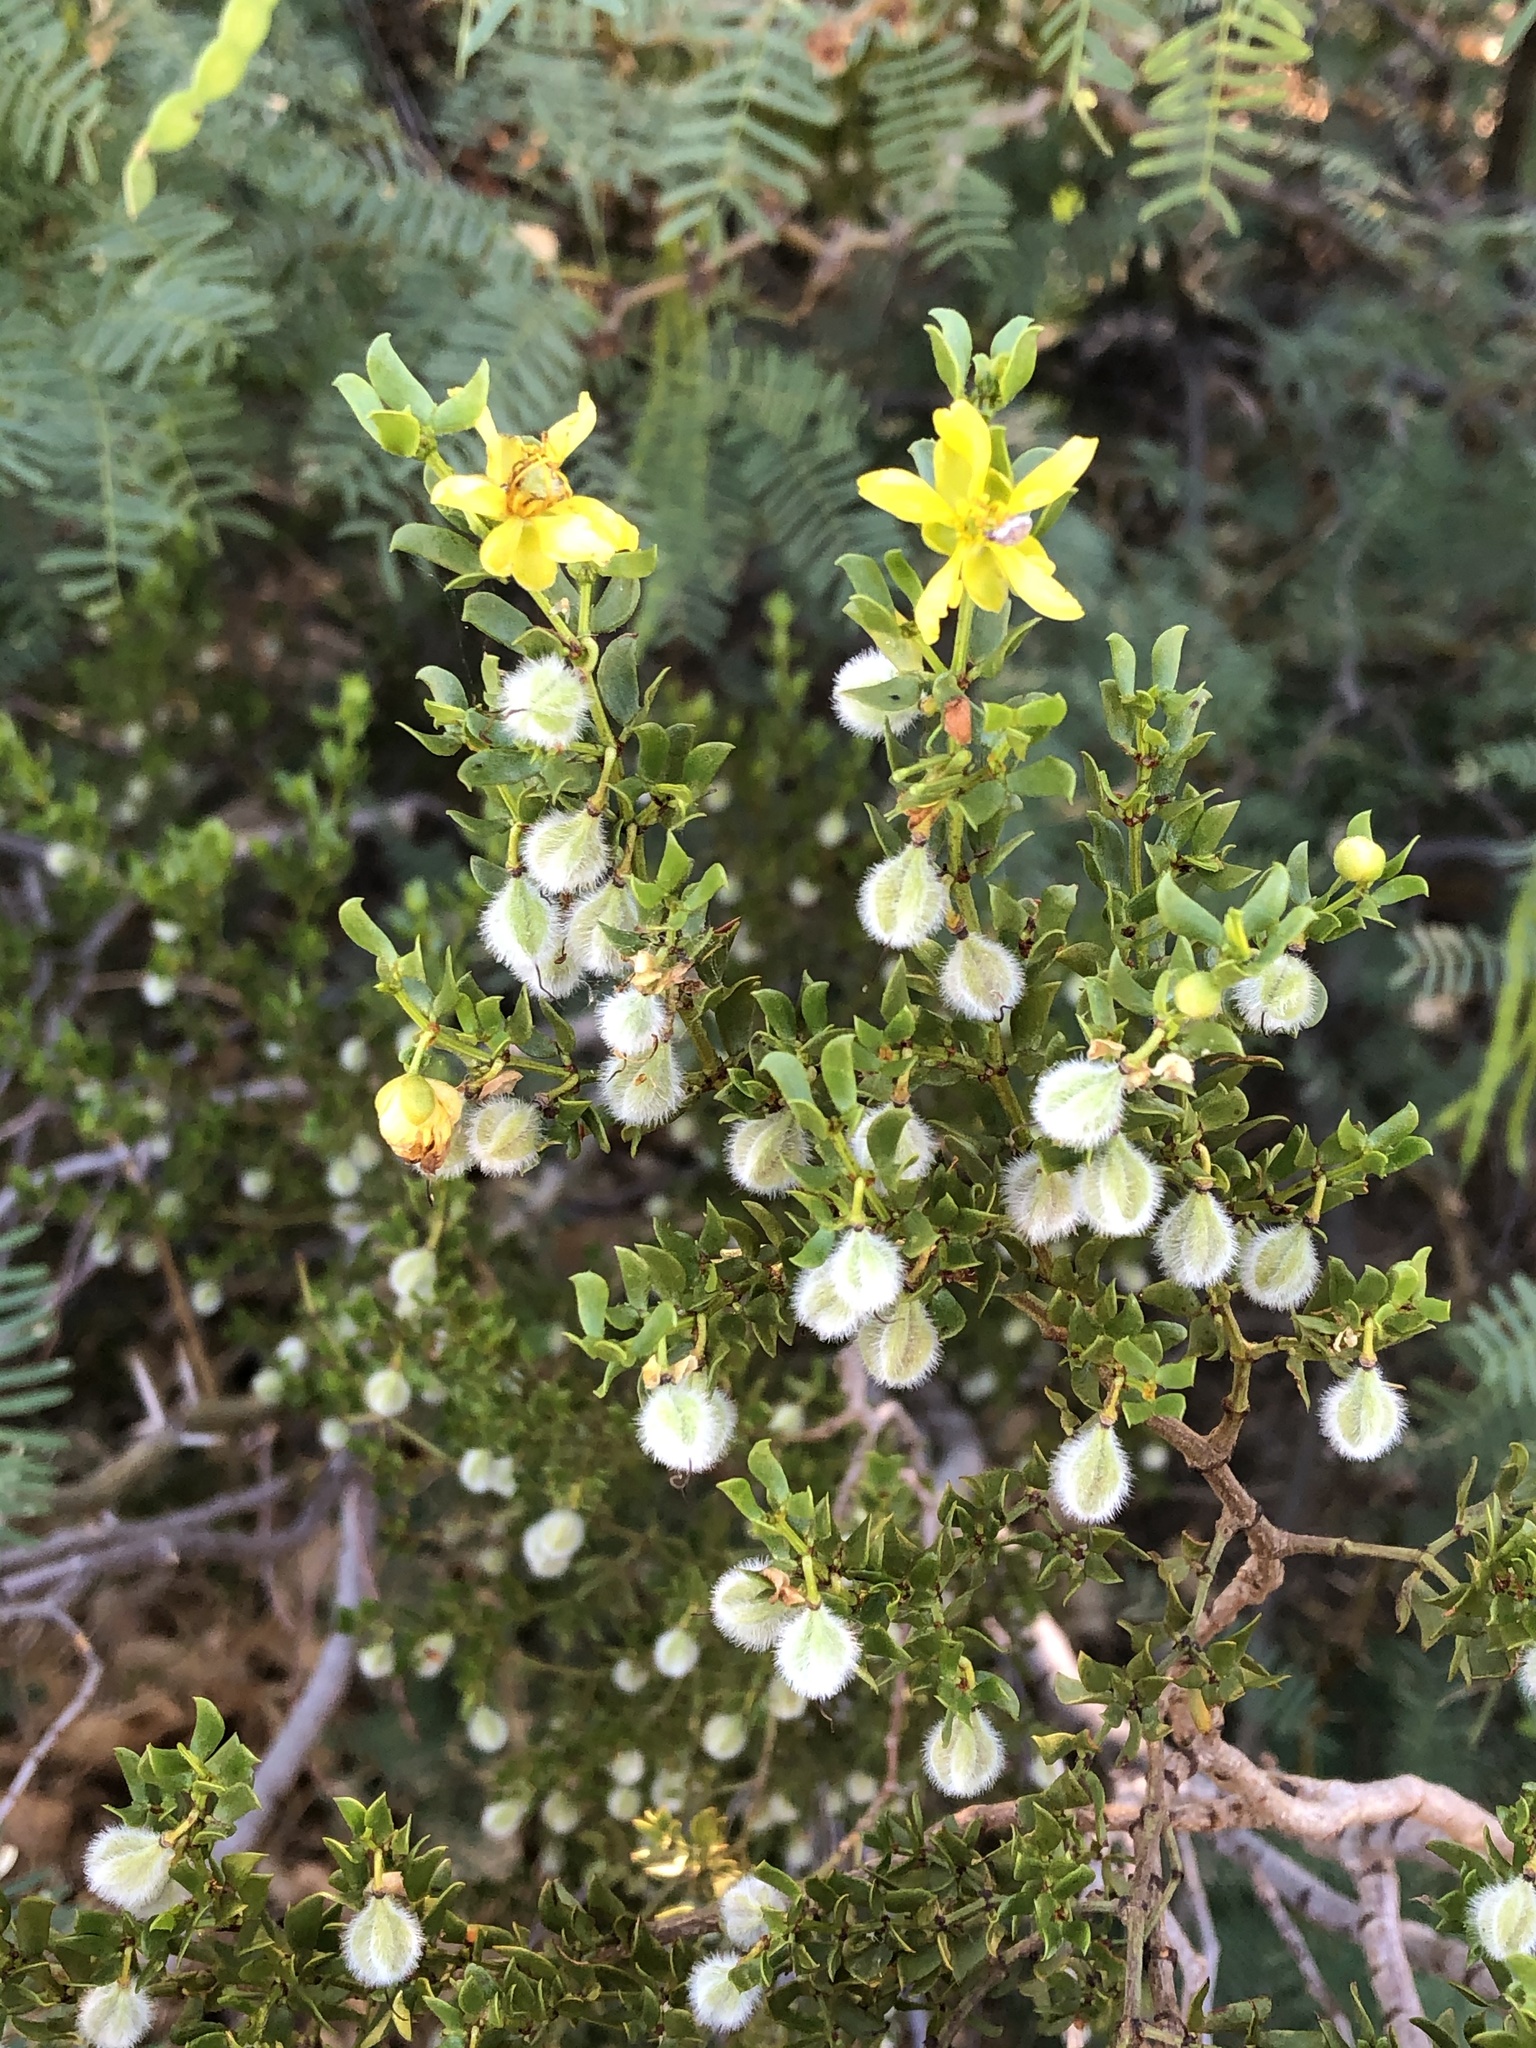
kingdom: Plantae
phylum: Tracheophyta
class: Magnoliopsida
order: Zygophyllales
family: Zygophyllaceae
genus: Larrea
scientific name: Larrea tridentata
